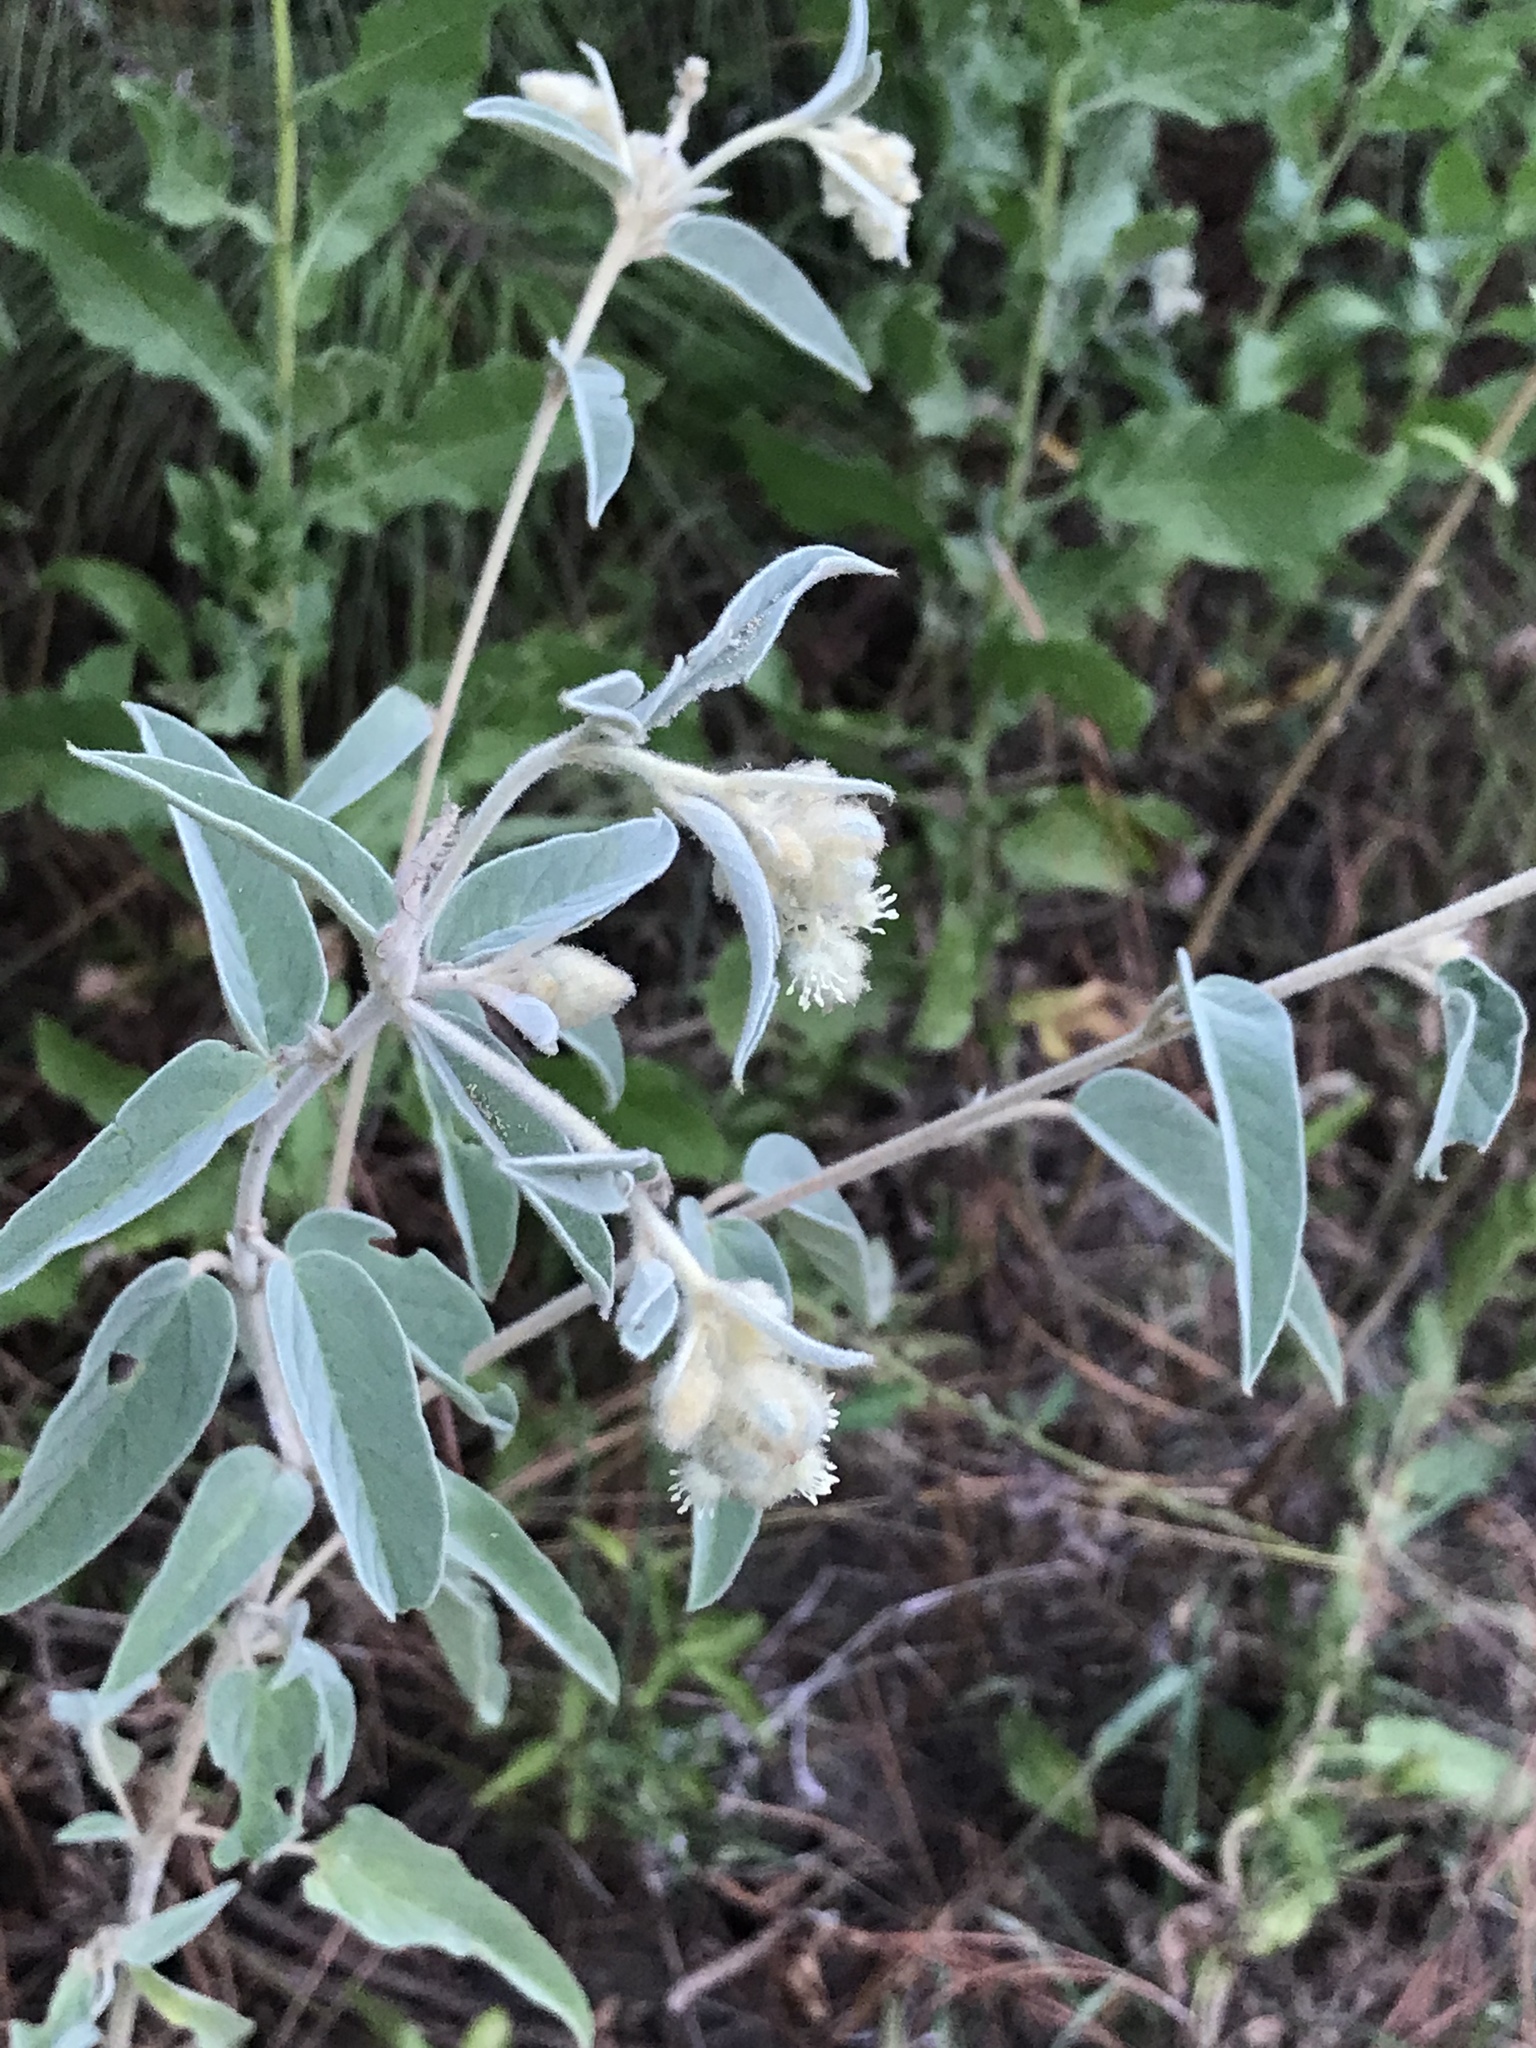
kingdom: Plantae
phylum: Tracheophyta
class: Magnoliopsida
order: Malpighiales
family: Euphorbiaceae
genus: Croton
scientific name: Croton lindheimeri
